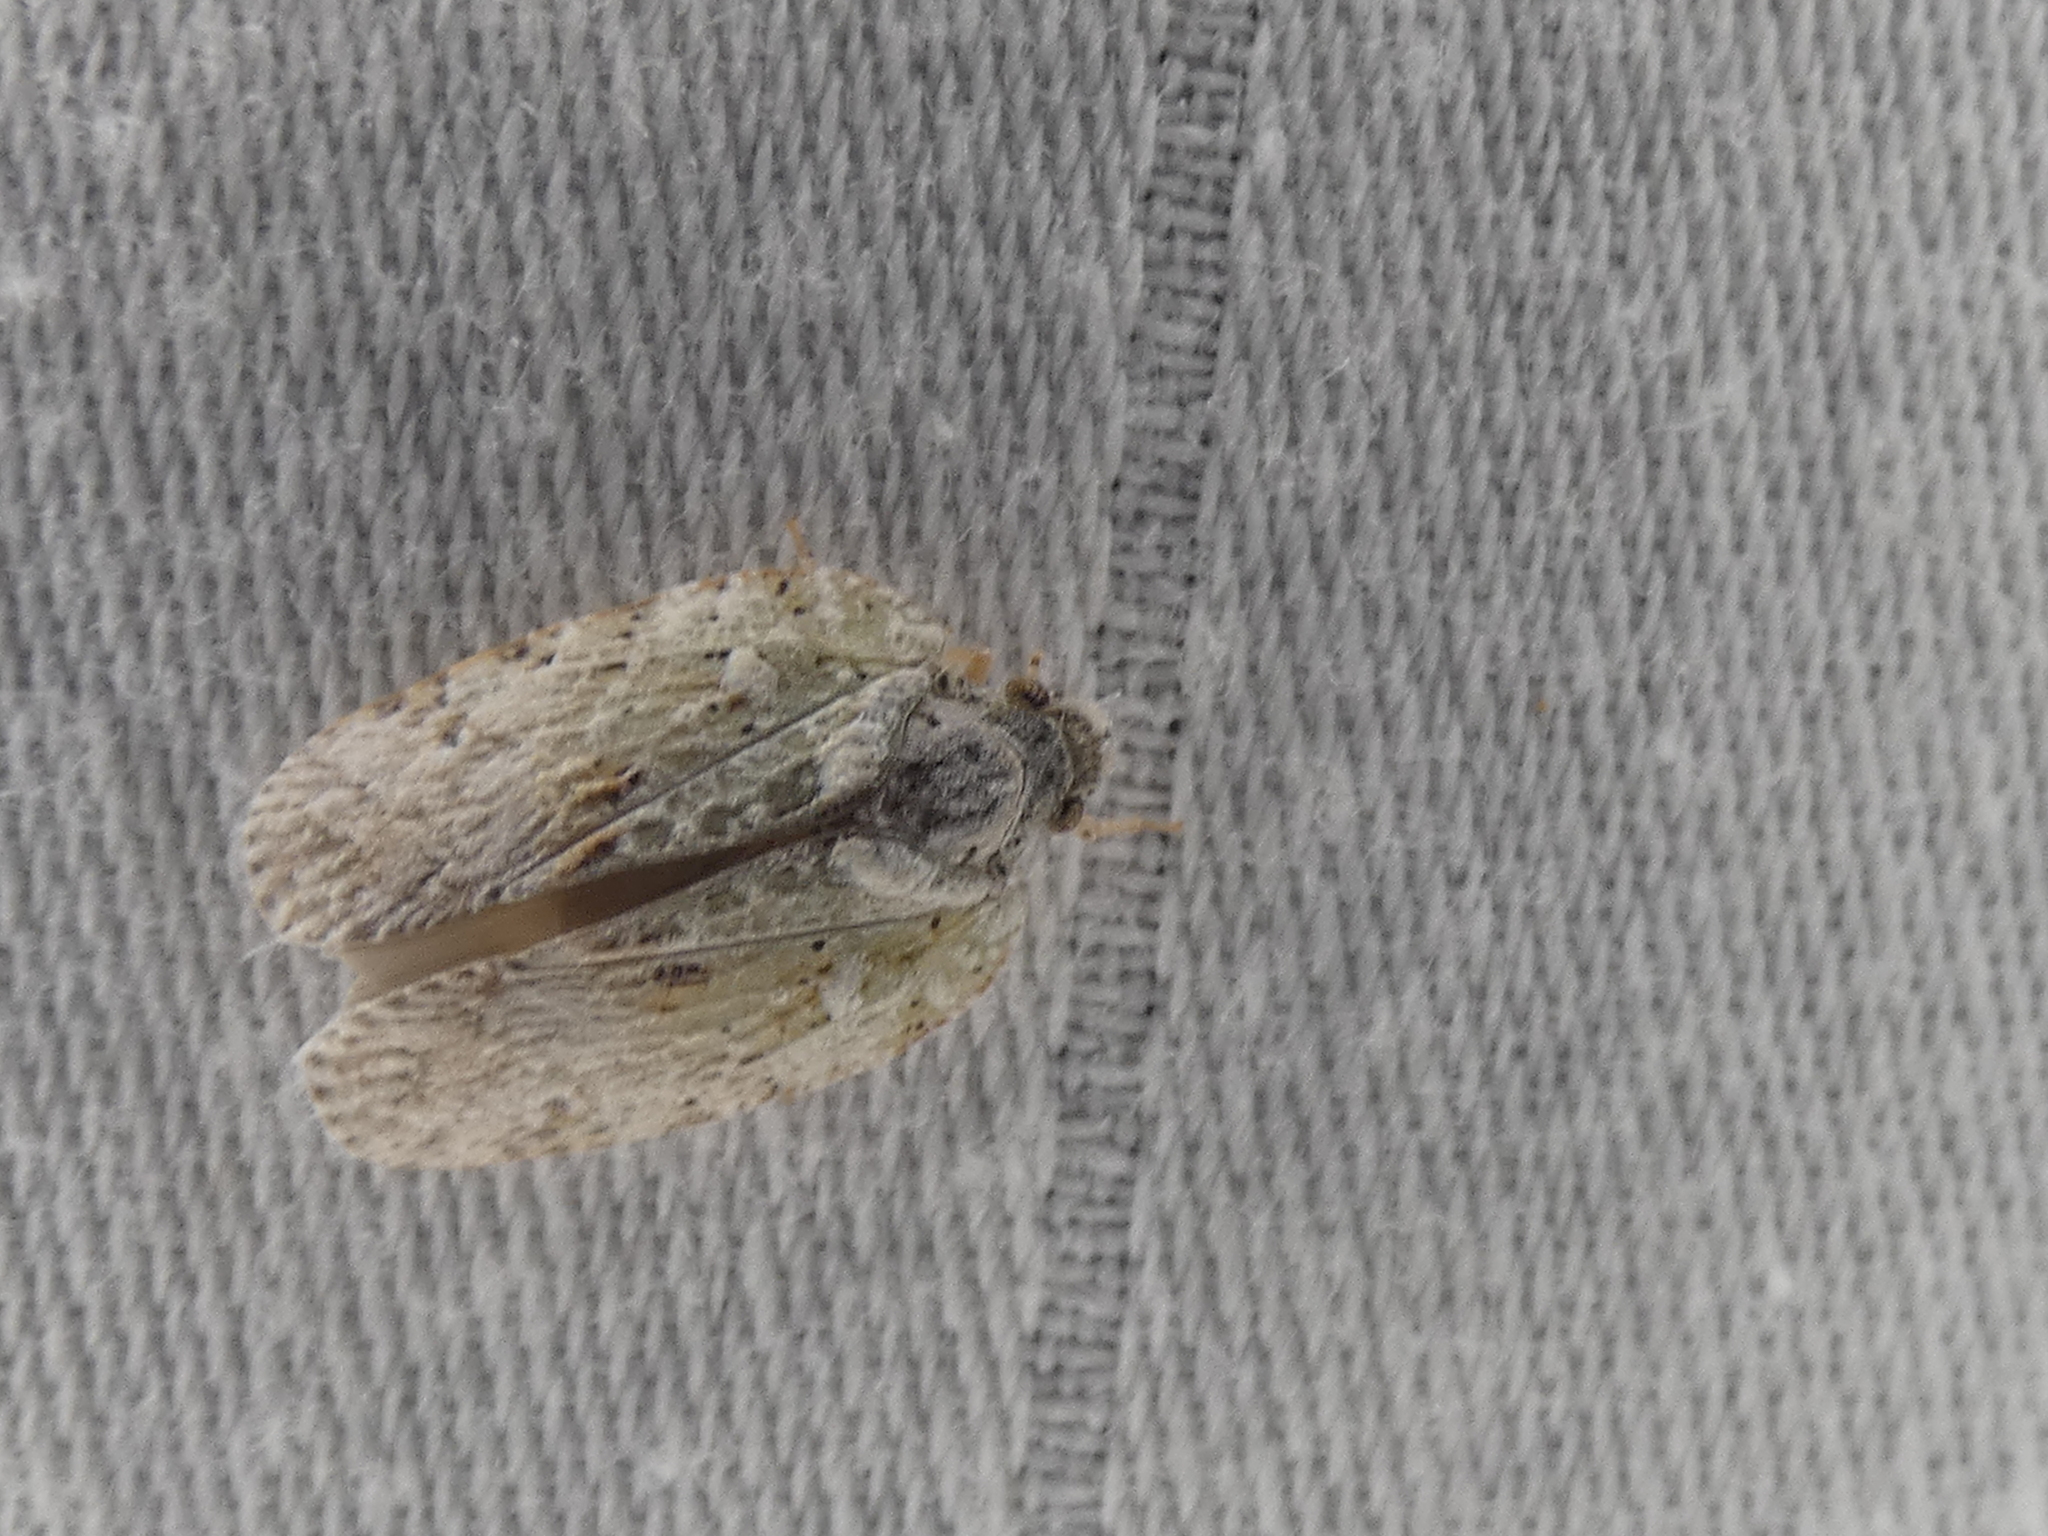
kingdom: Animalia
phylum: Arthropoda
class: Insecta
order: Hemiptera
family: Flatidae
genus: Flatoidinus
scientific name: Flatoidinus punctatus
